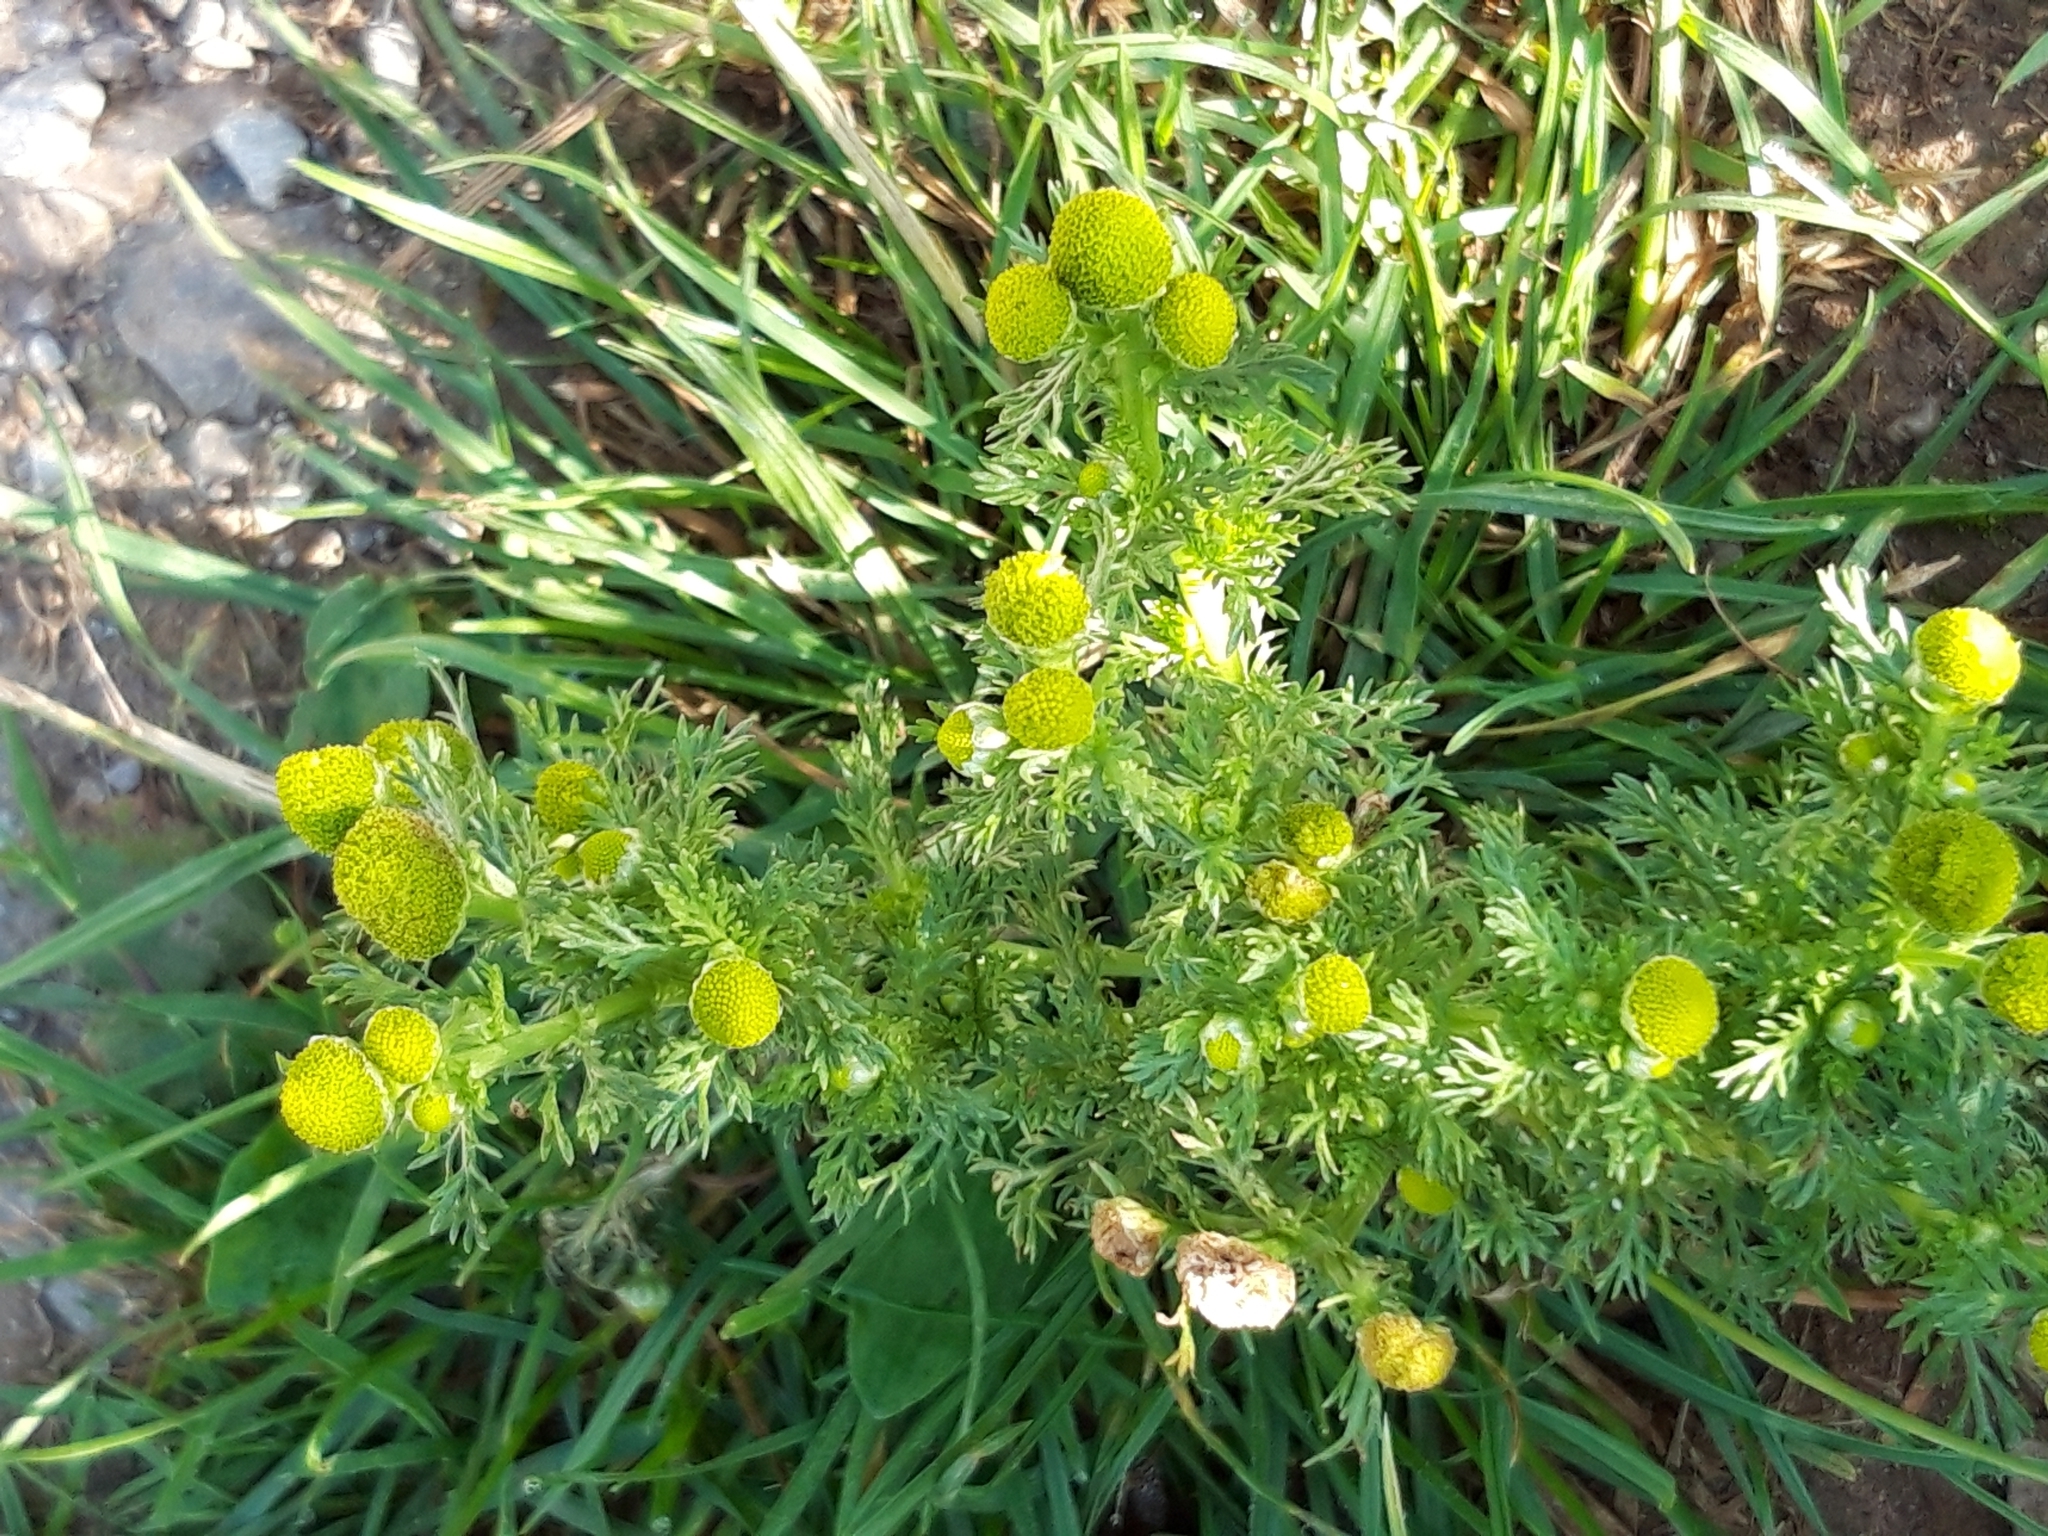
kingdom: Plantae
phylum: Tracheophyta
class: Magnoliopsida
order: Asterales
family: Asteraceae
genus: Matricaria
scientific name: Matricaria discoidea
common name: Disc mayweed
